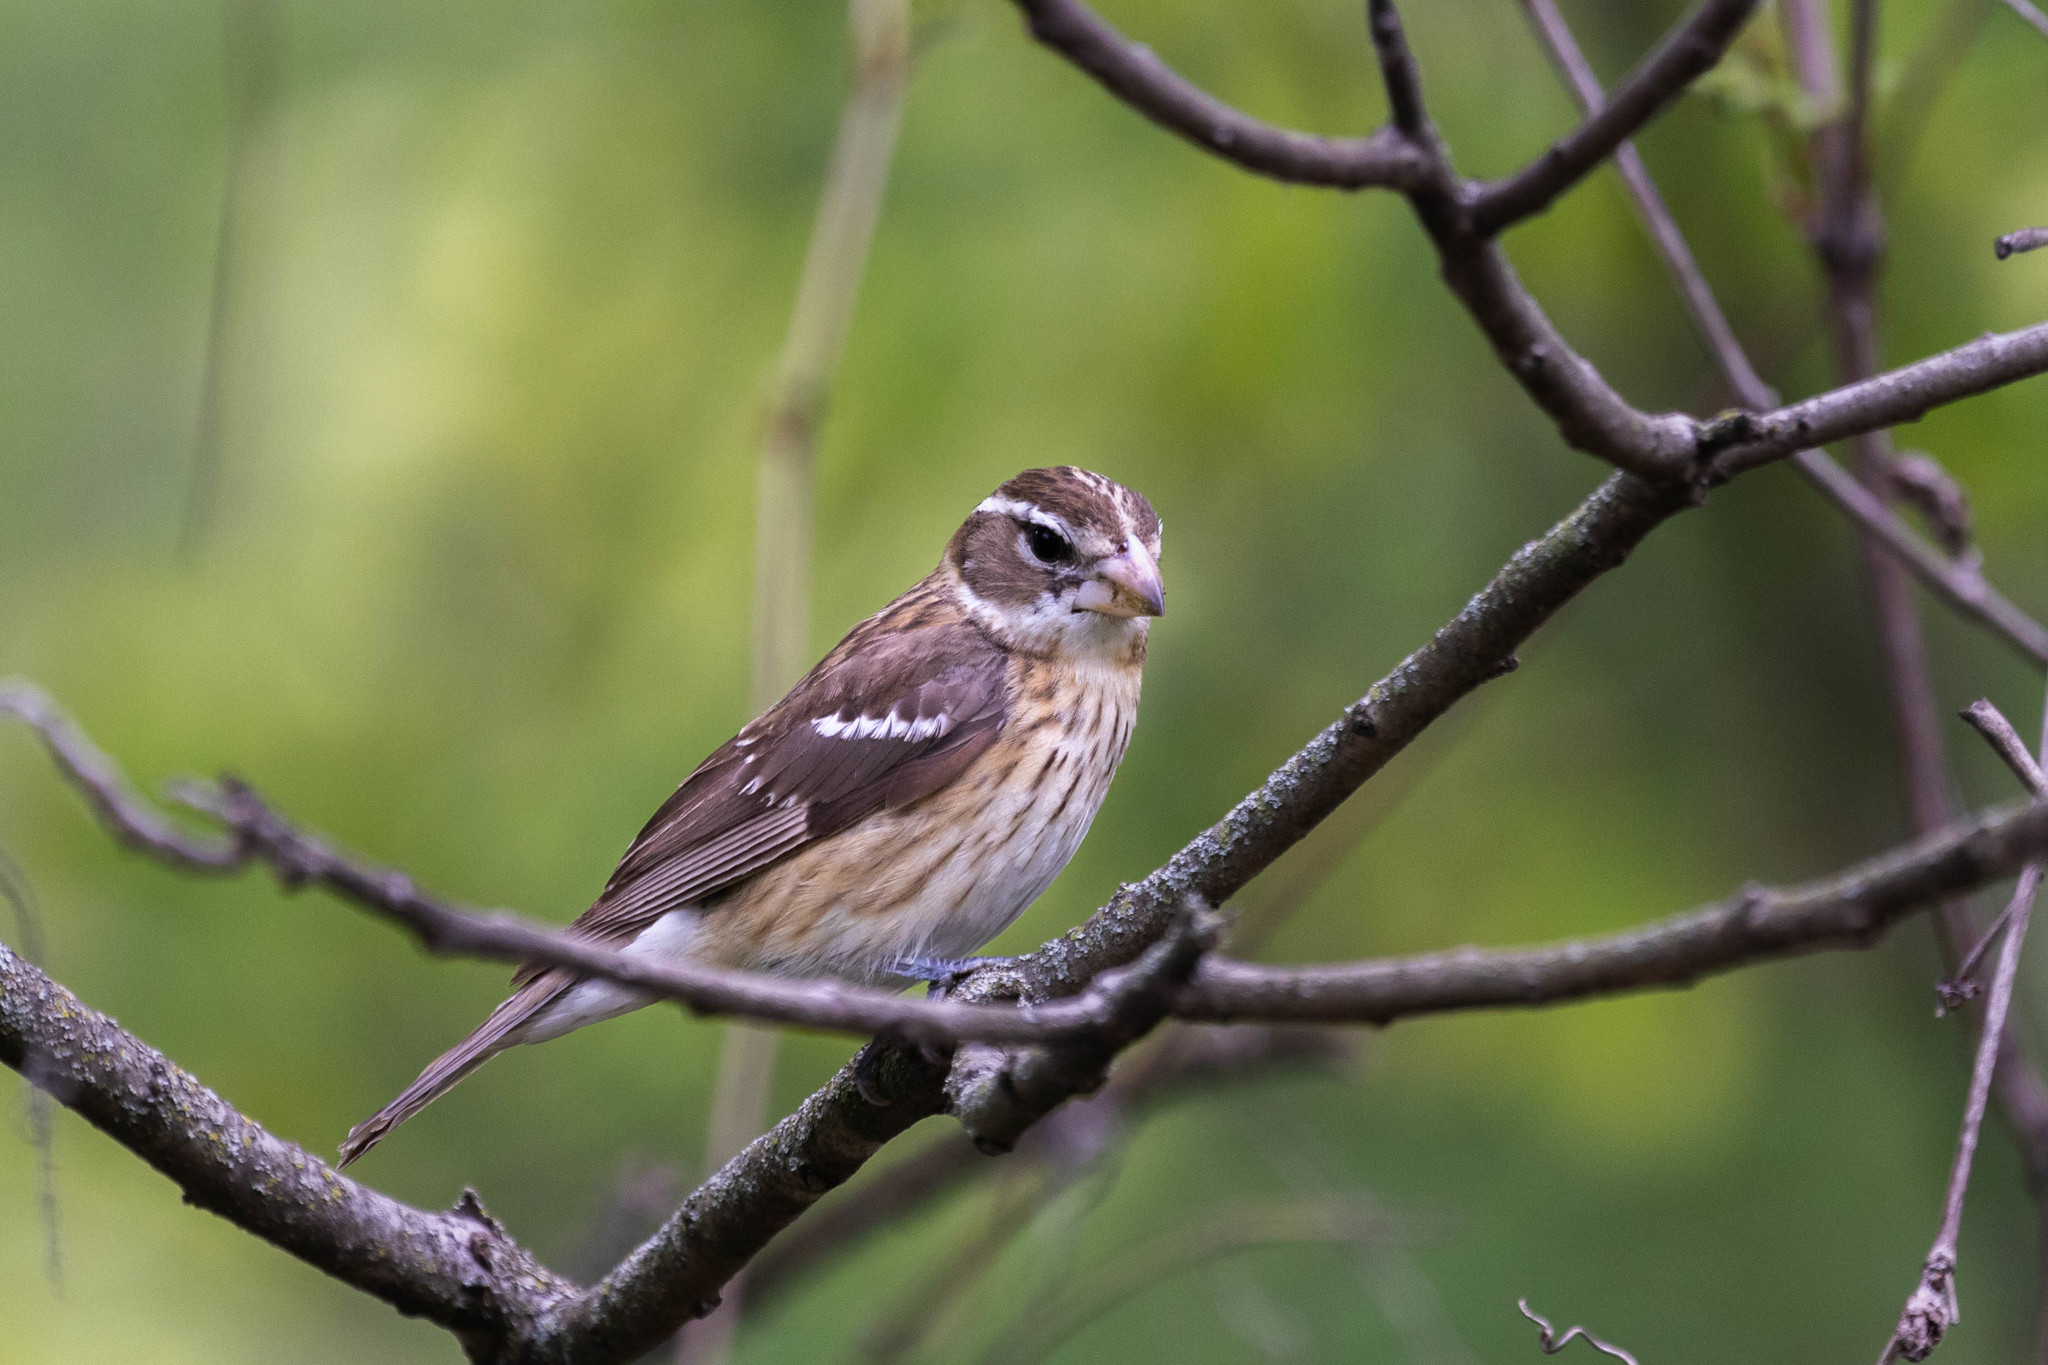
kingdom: Animalia
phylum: Chordata
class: Aves
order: Passeriformes
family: Cardinalidae
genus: Pheucticus
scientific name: Pheucticus ludovicianus
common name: Rose-breasted grosbeak
